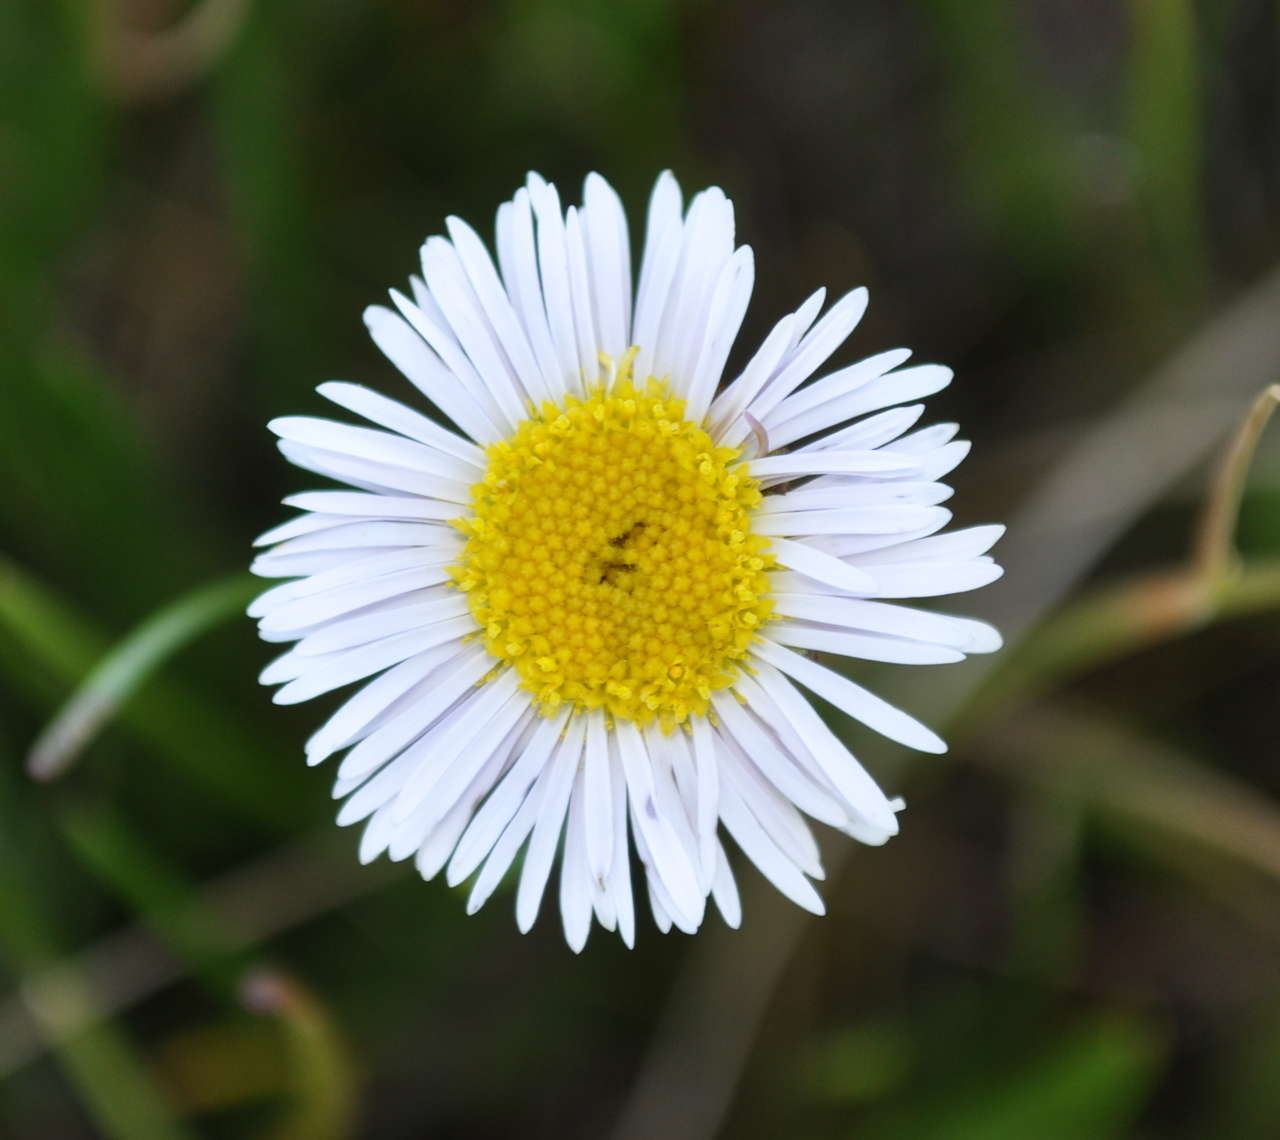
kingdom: Plantae
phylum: Tracheophyta
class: Magnoliopsida
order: Asterales
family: Asteraceae
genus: Allittia
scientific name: Allittia cardiocarpa
